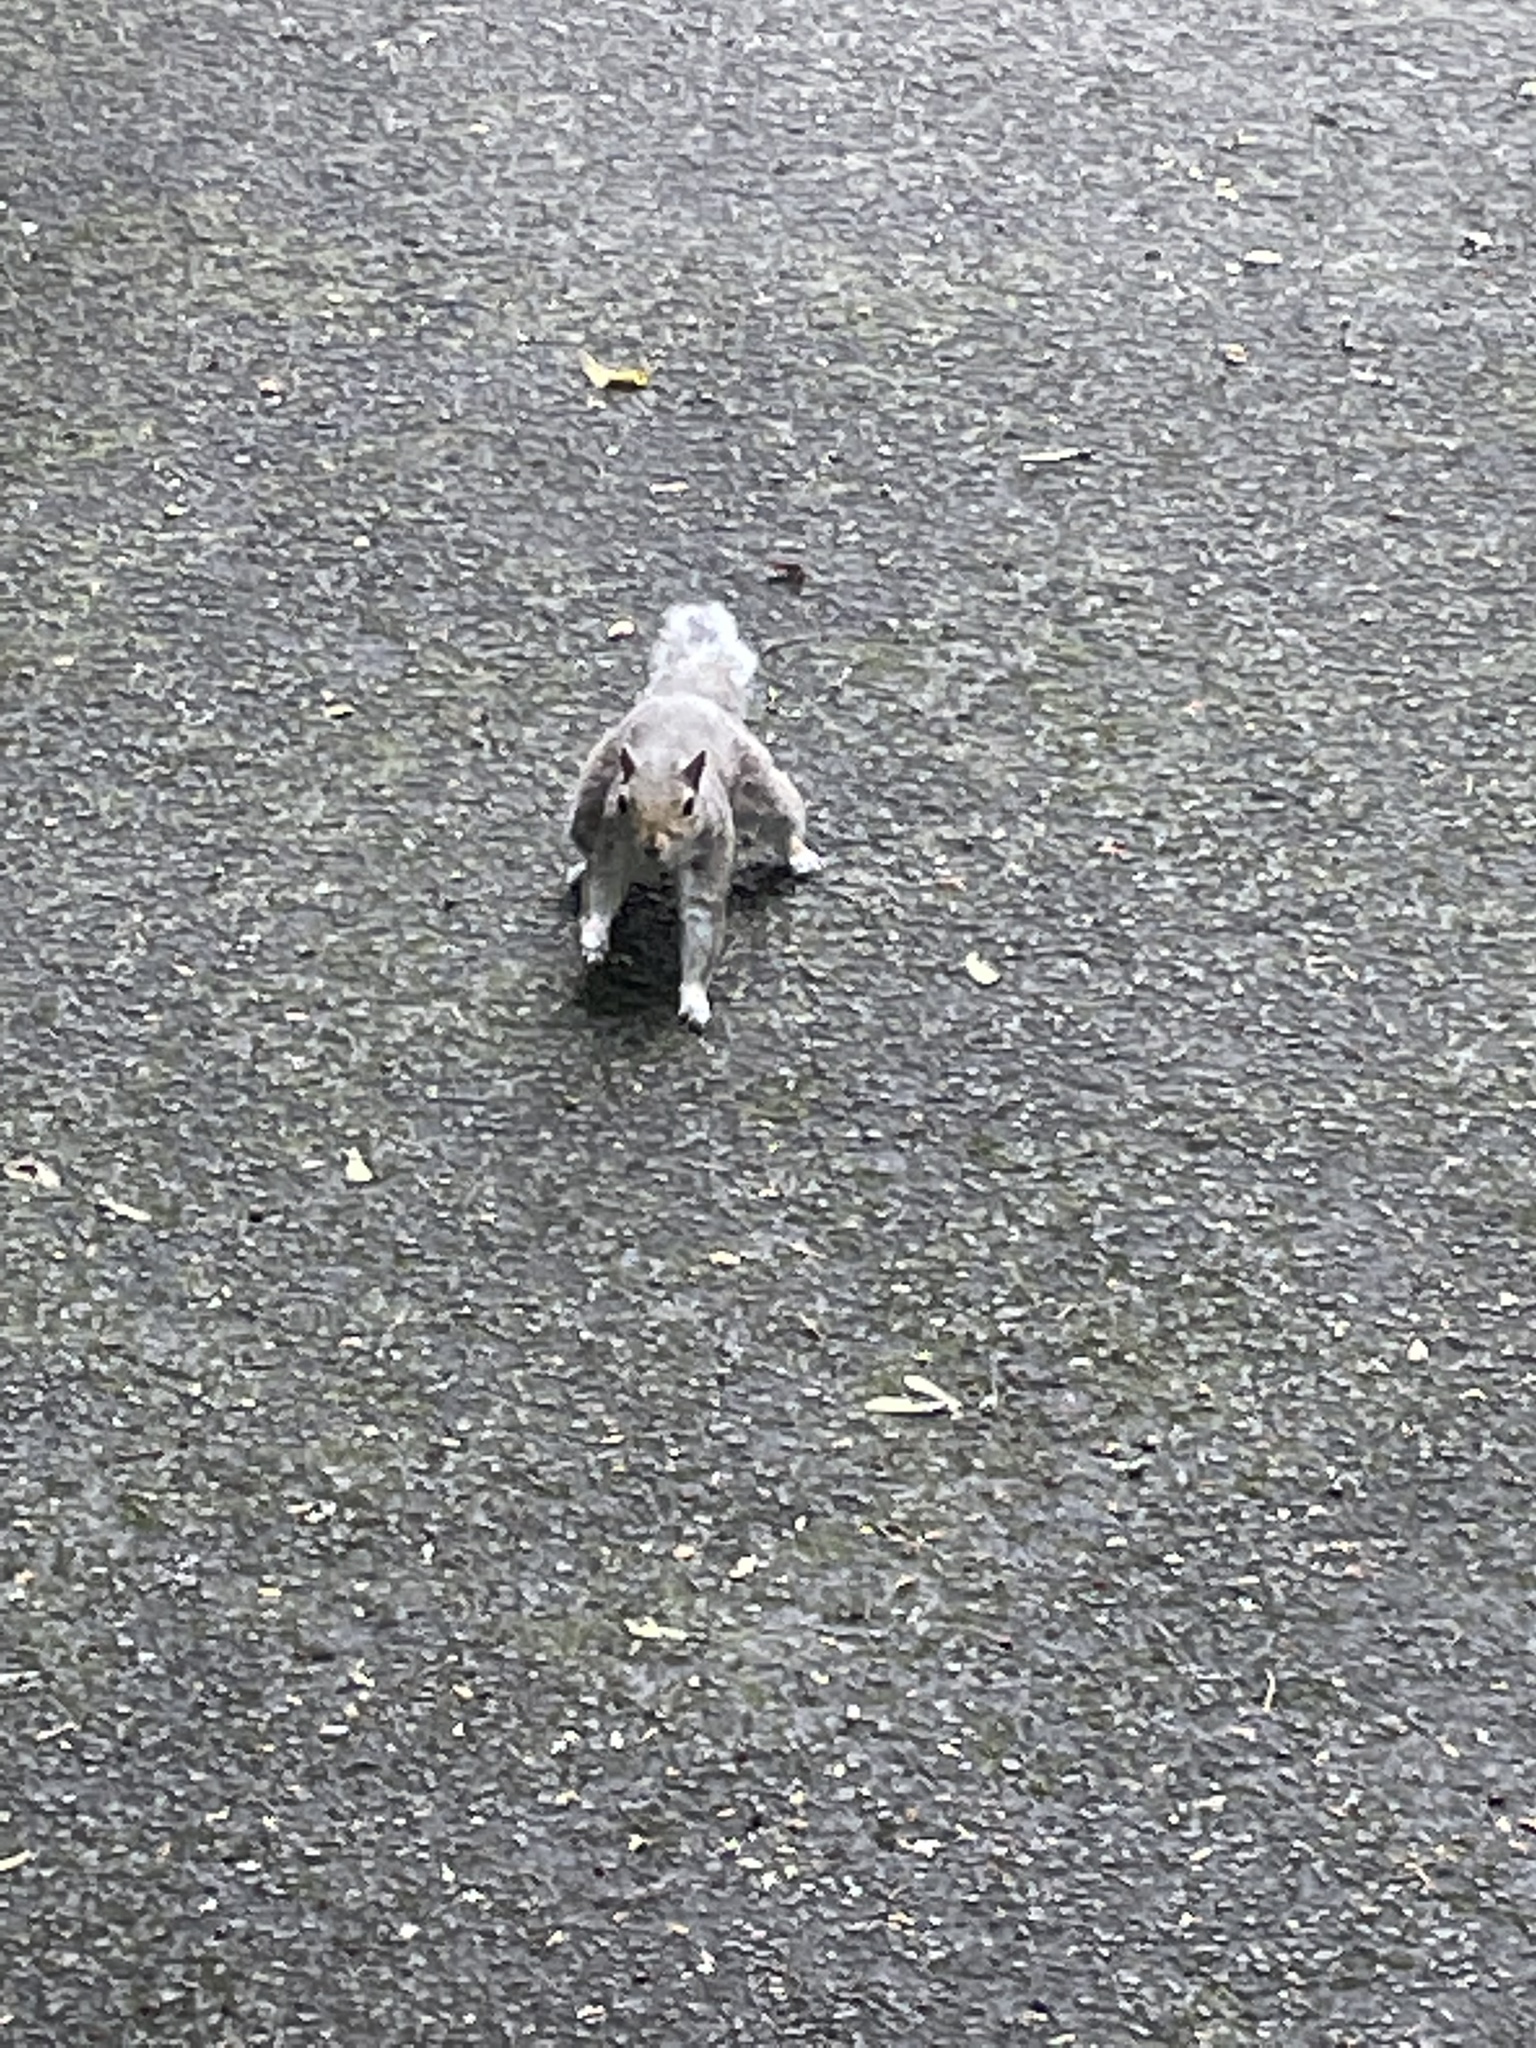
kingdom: Animalia
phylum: Chordata
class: Mammalia
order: Rodentia
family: Sciuridae
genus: Sciurus
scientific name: Sciurus carolinensis
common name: Eastern gray squirrel
